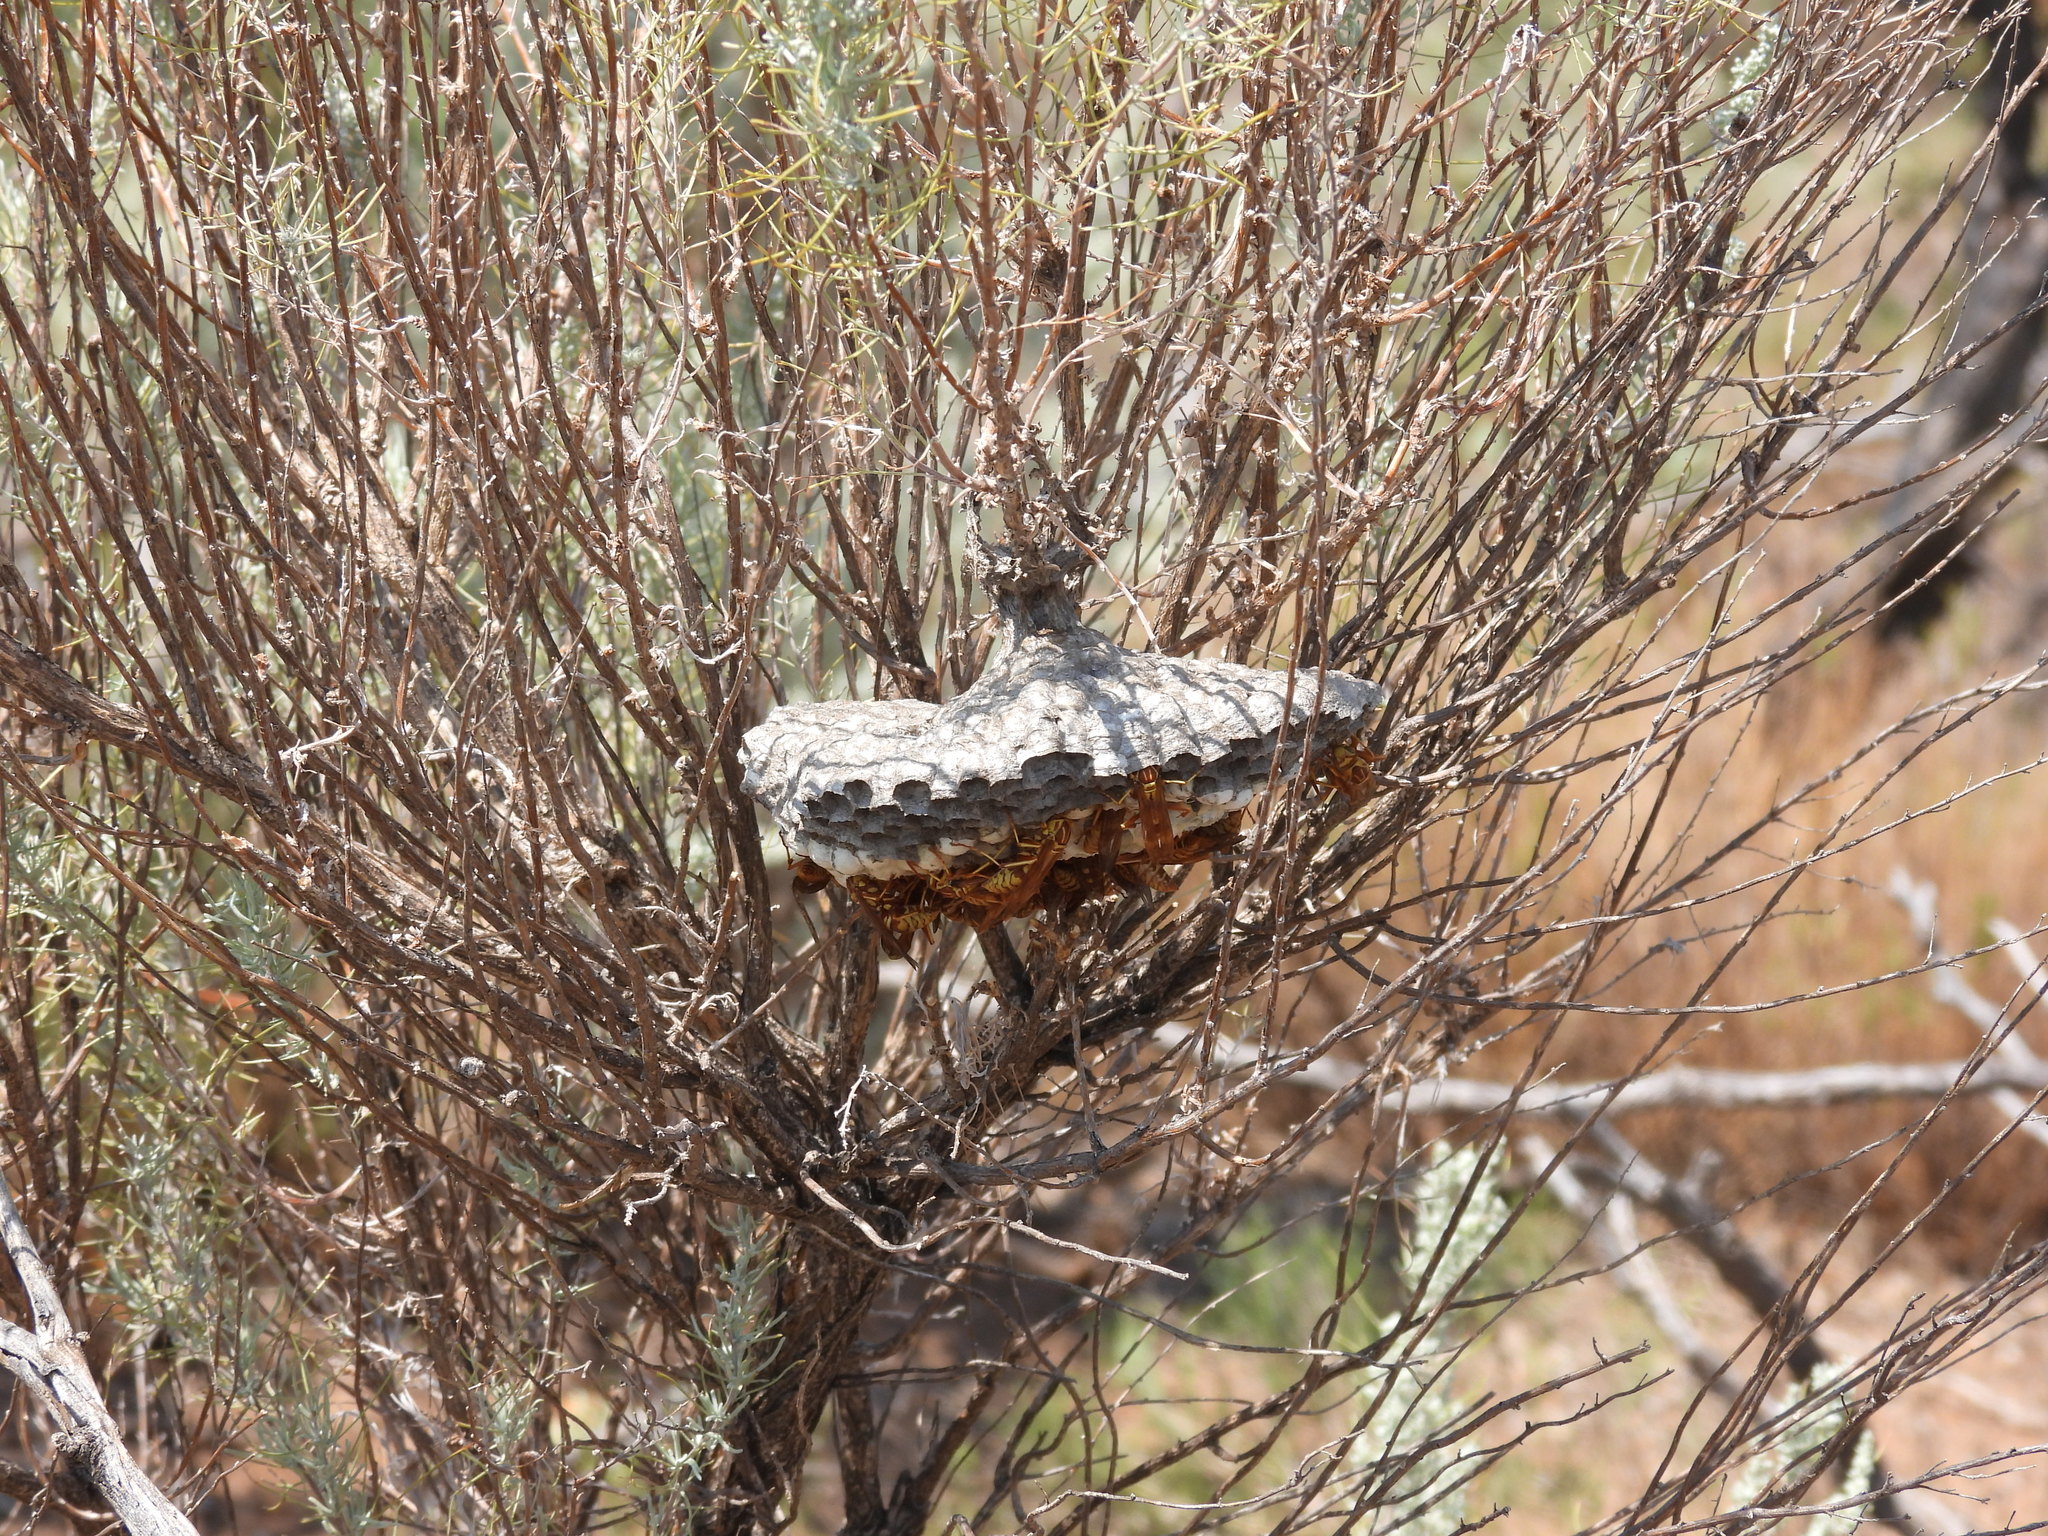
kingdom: Animalia
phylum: Arthropoda
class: Insecta
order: Hymenoptera
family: Eumenidae
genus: Polistes
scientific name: Polistes apachus
